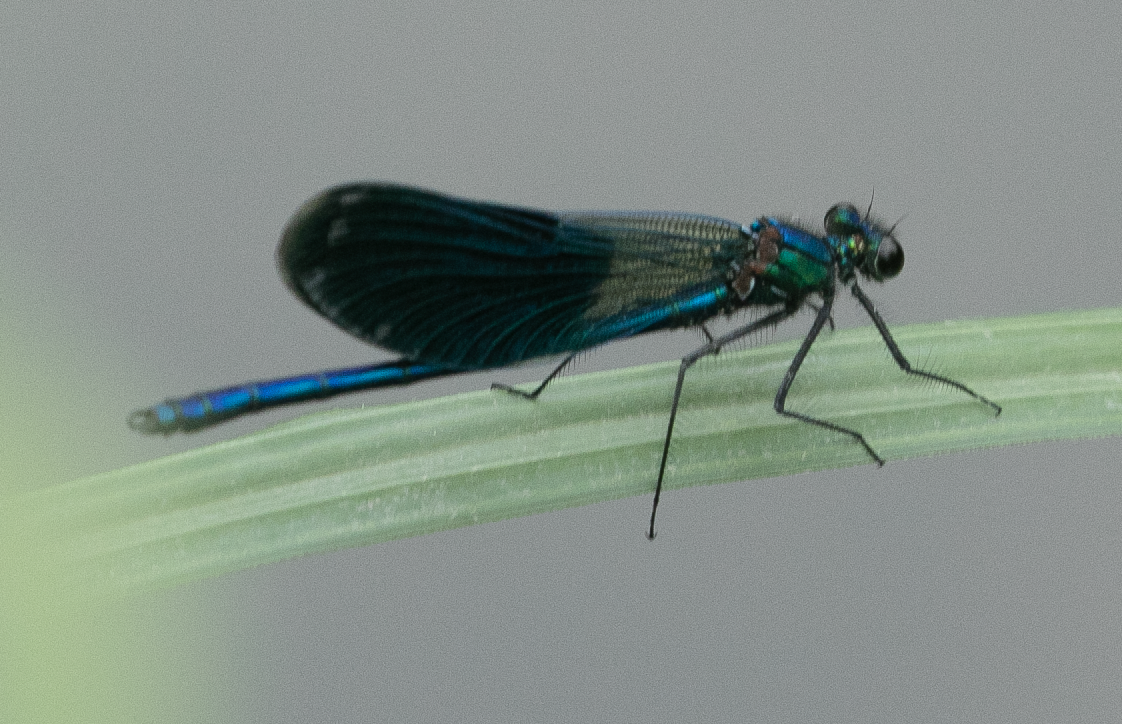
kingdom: Animalia
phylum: Arthropoda
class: Insecta
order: Odonata
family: Calopterygidae
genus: Calopteryx
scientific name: Calopteryx splendens
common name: Banded demoiselle
